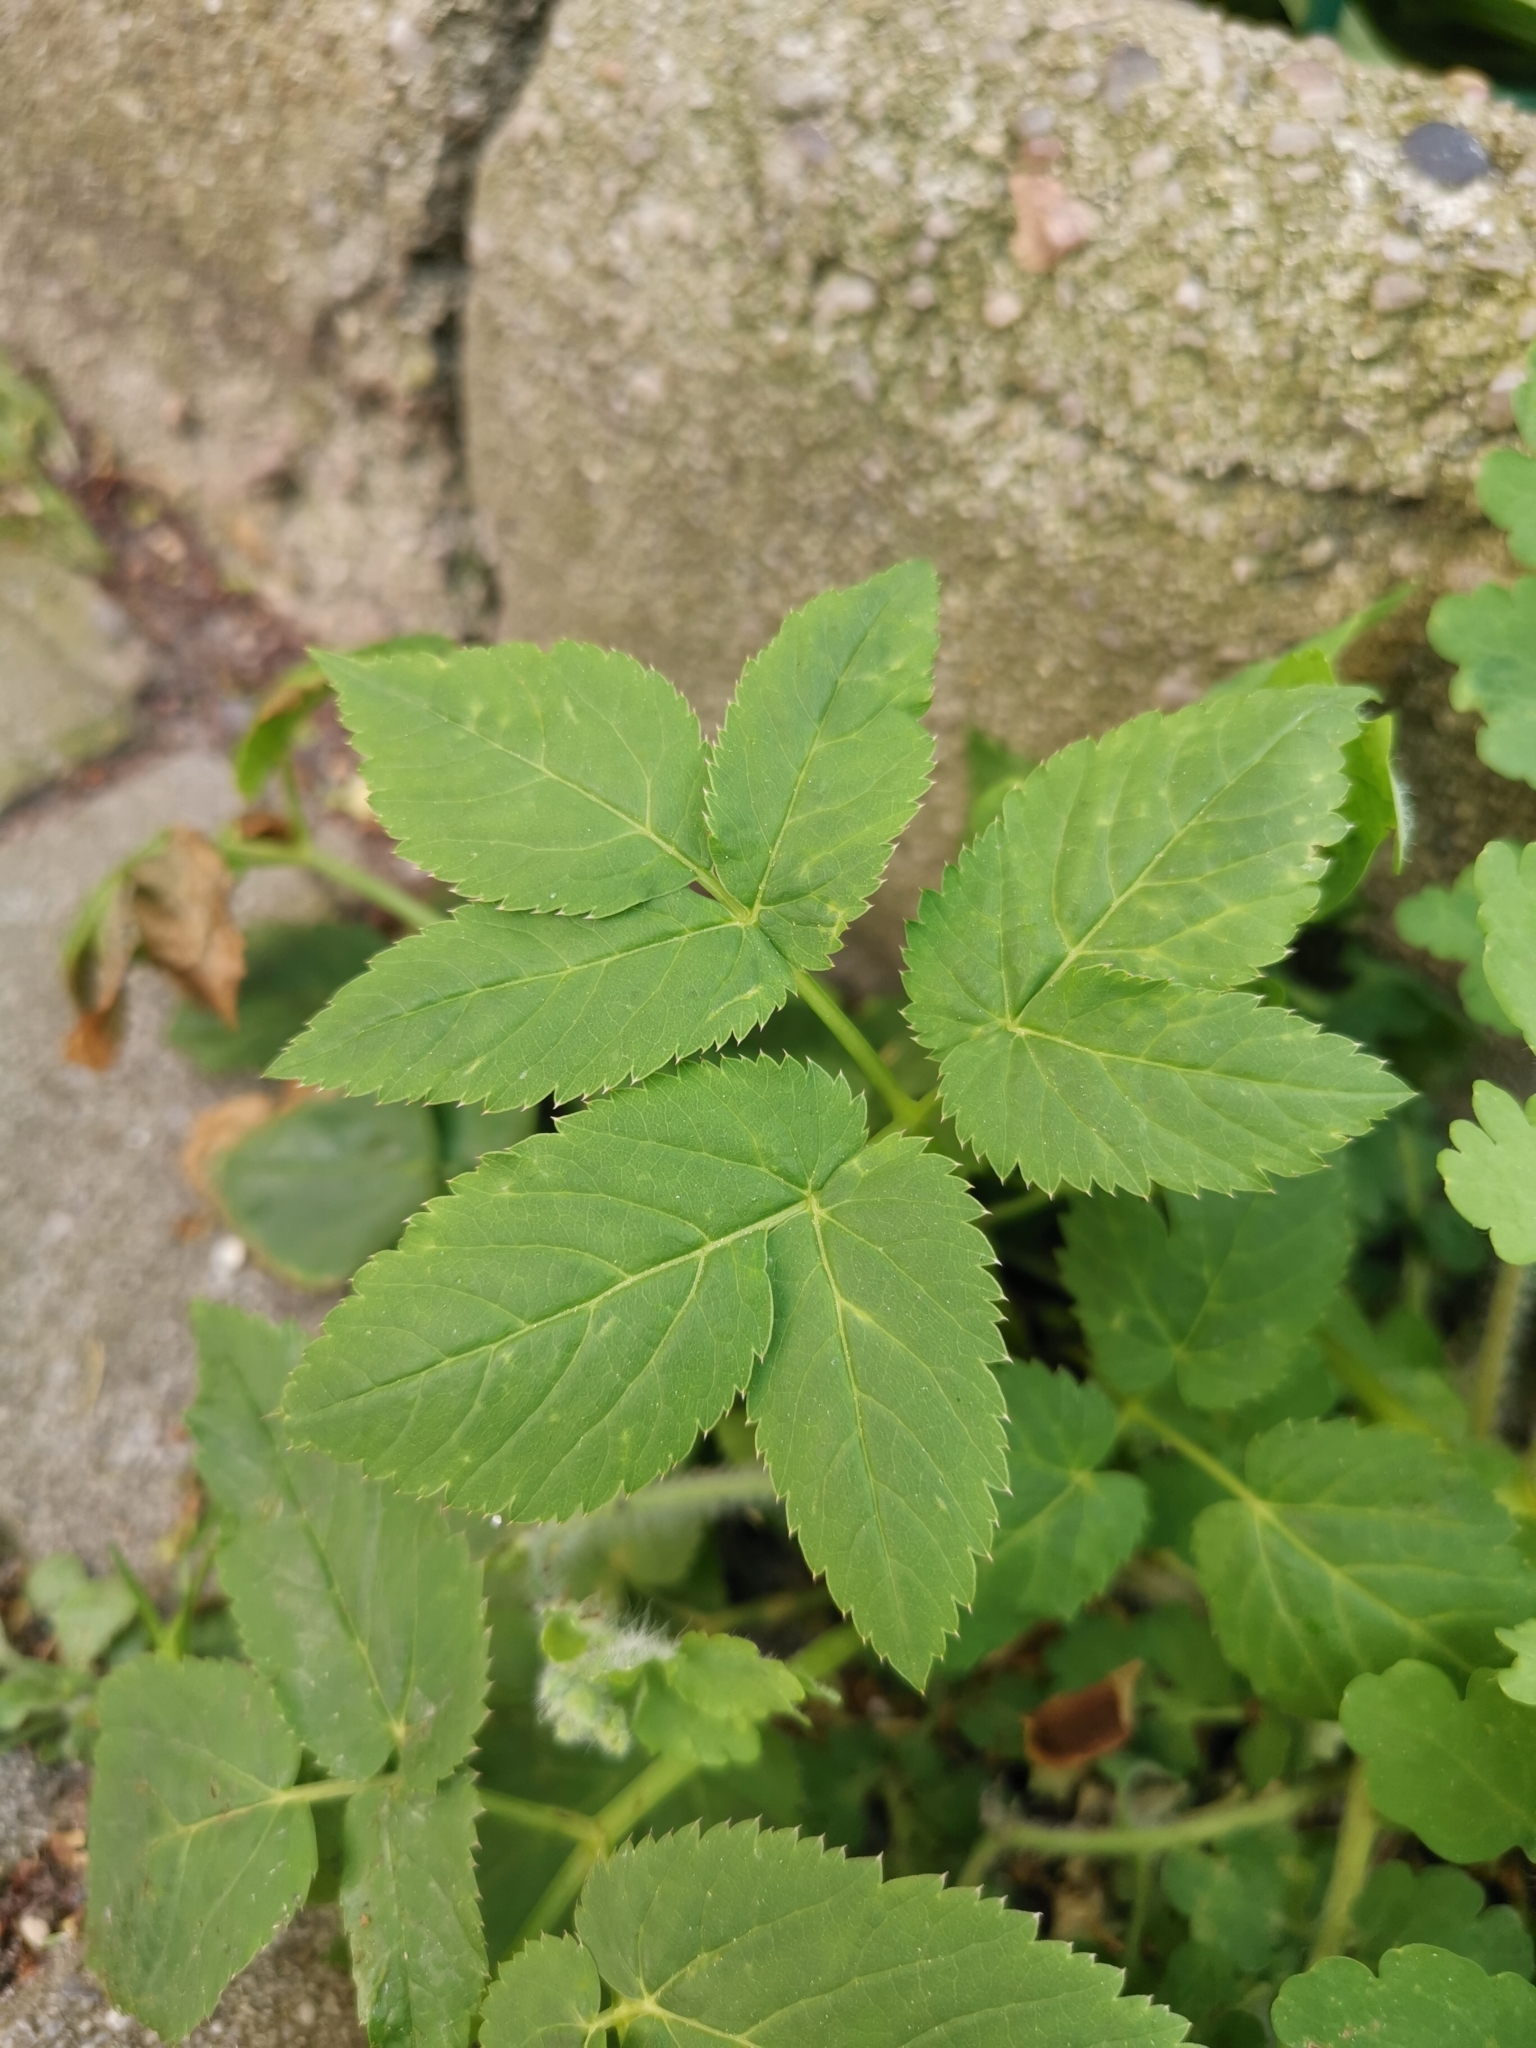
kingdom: Plantae
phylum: Tracheophyta
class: Magnoliopsida
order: Apiales
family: Apiaceae
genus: Aegopodium
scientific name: Aegopodium podagraria
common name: Ground-elder
